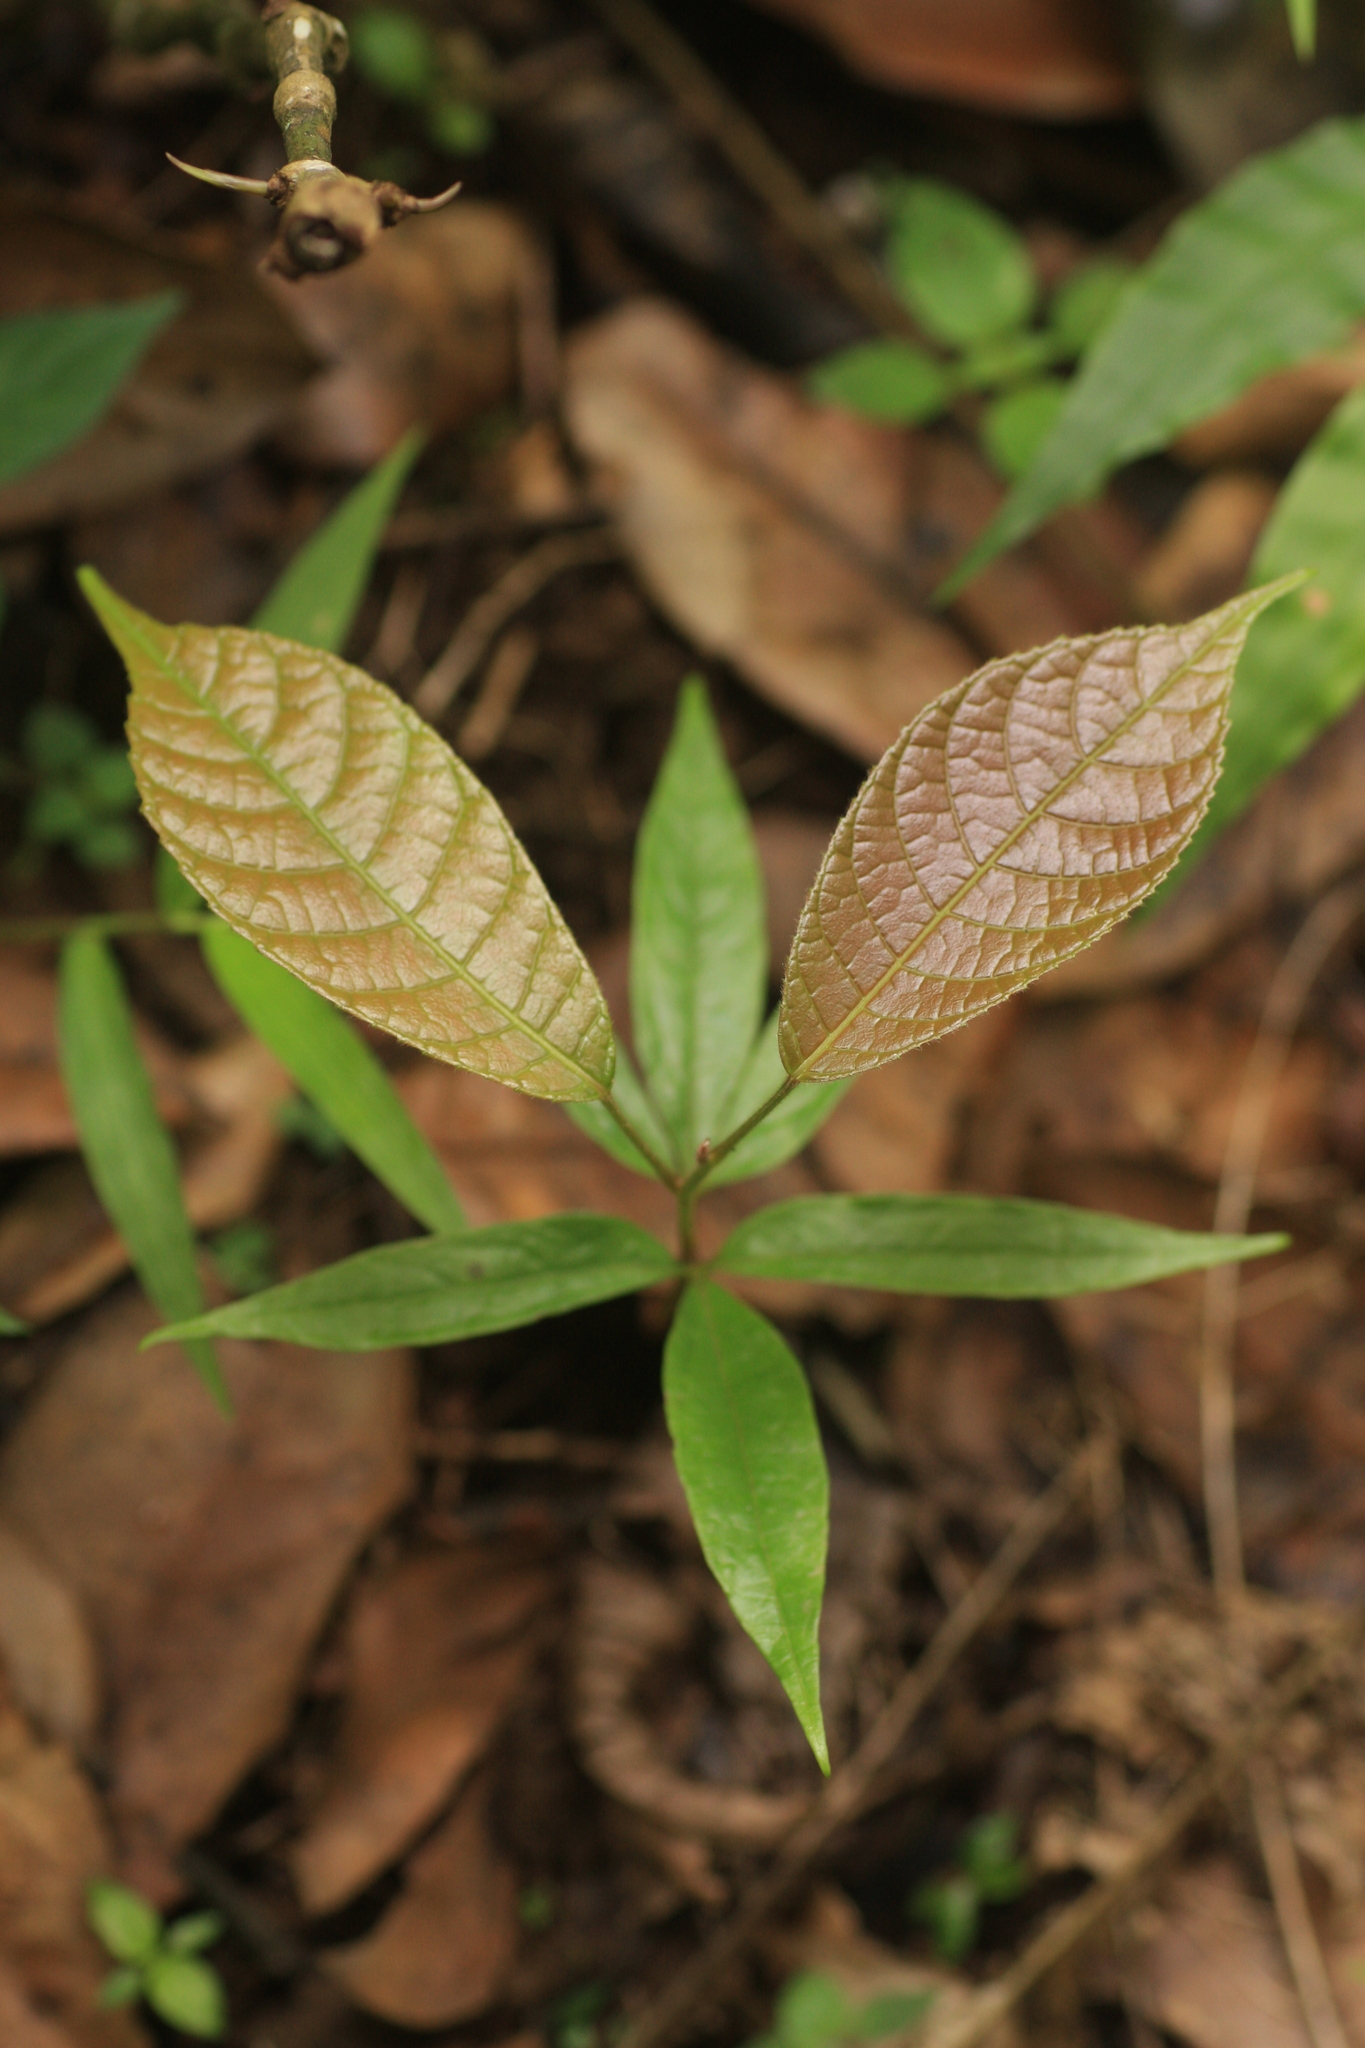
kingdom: Plantae
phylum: Tracheophyta
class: Magnoliopsida
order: Sapindales
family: Burseraceae
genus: Canarium
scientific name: Canarium strictum
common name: Indian white-mahogany
